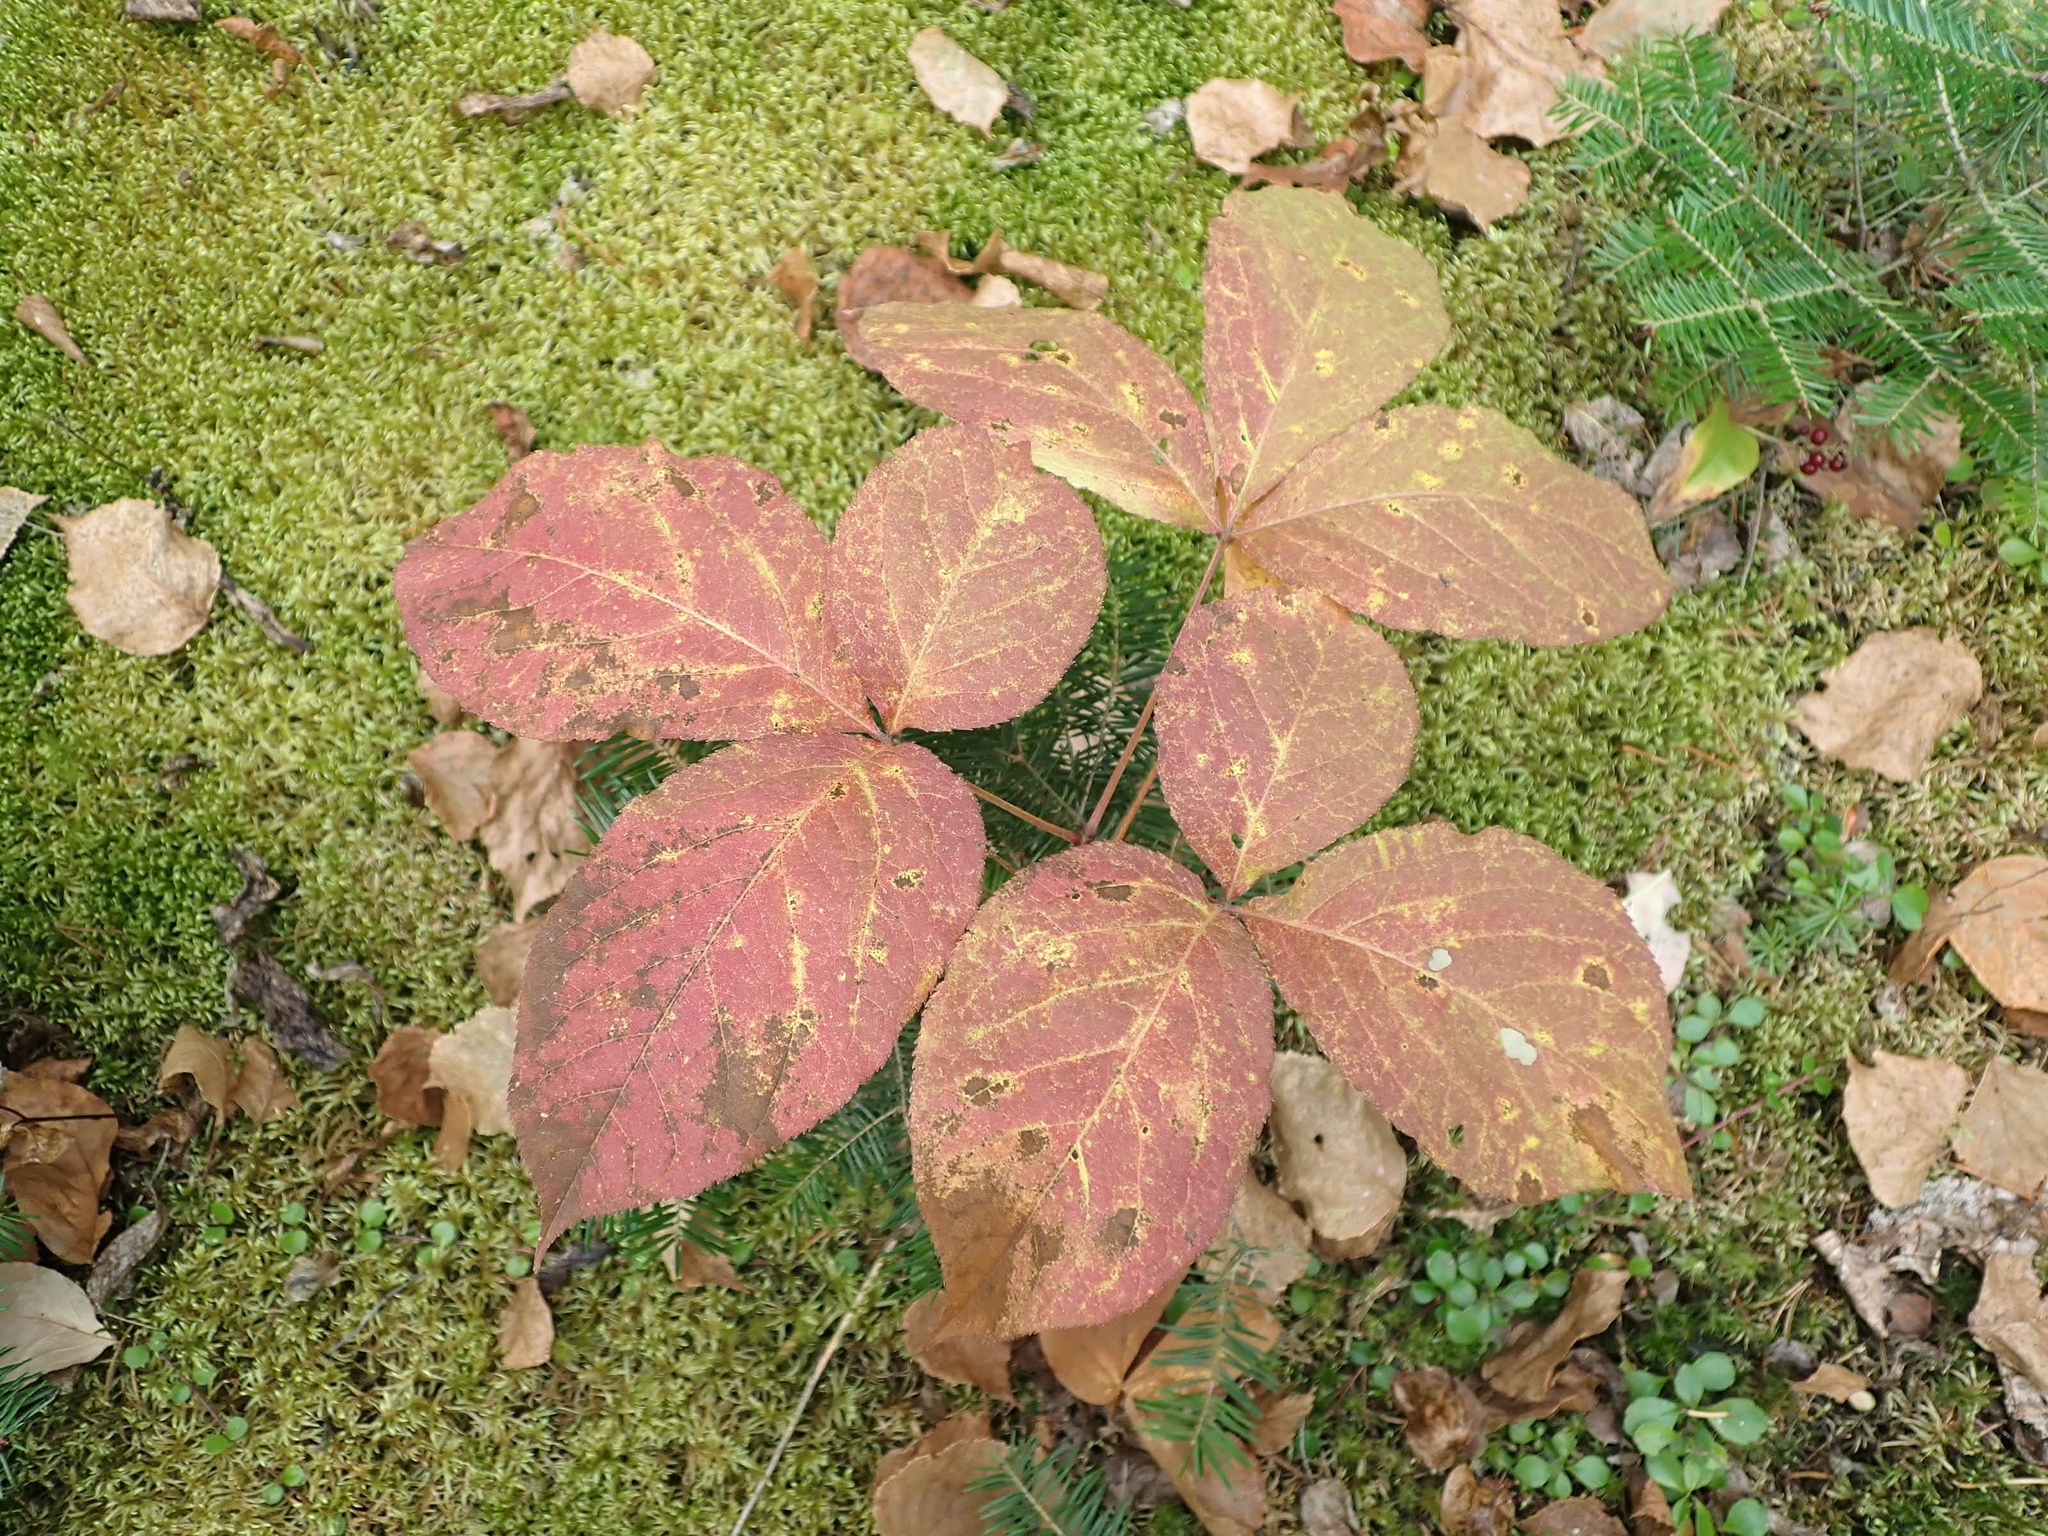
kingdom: Plantae
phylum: Tracheophyta
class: Magnoliopsida
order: Apiales
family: Araliaceae
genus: Aralia
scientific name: Aralia nudicaulis
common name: Wild sarsaparilla
